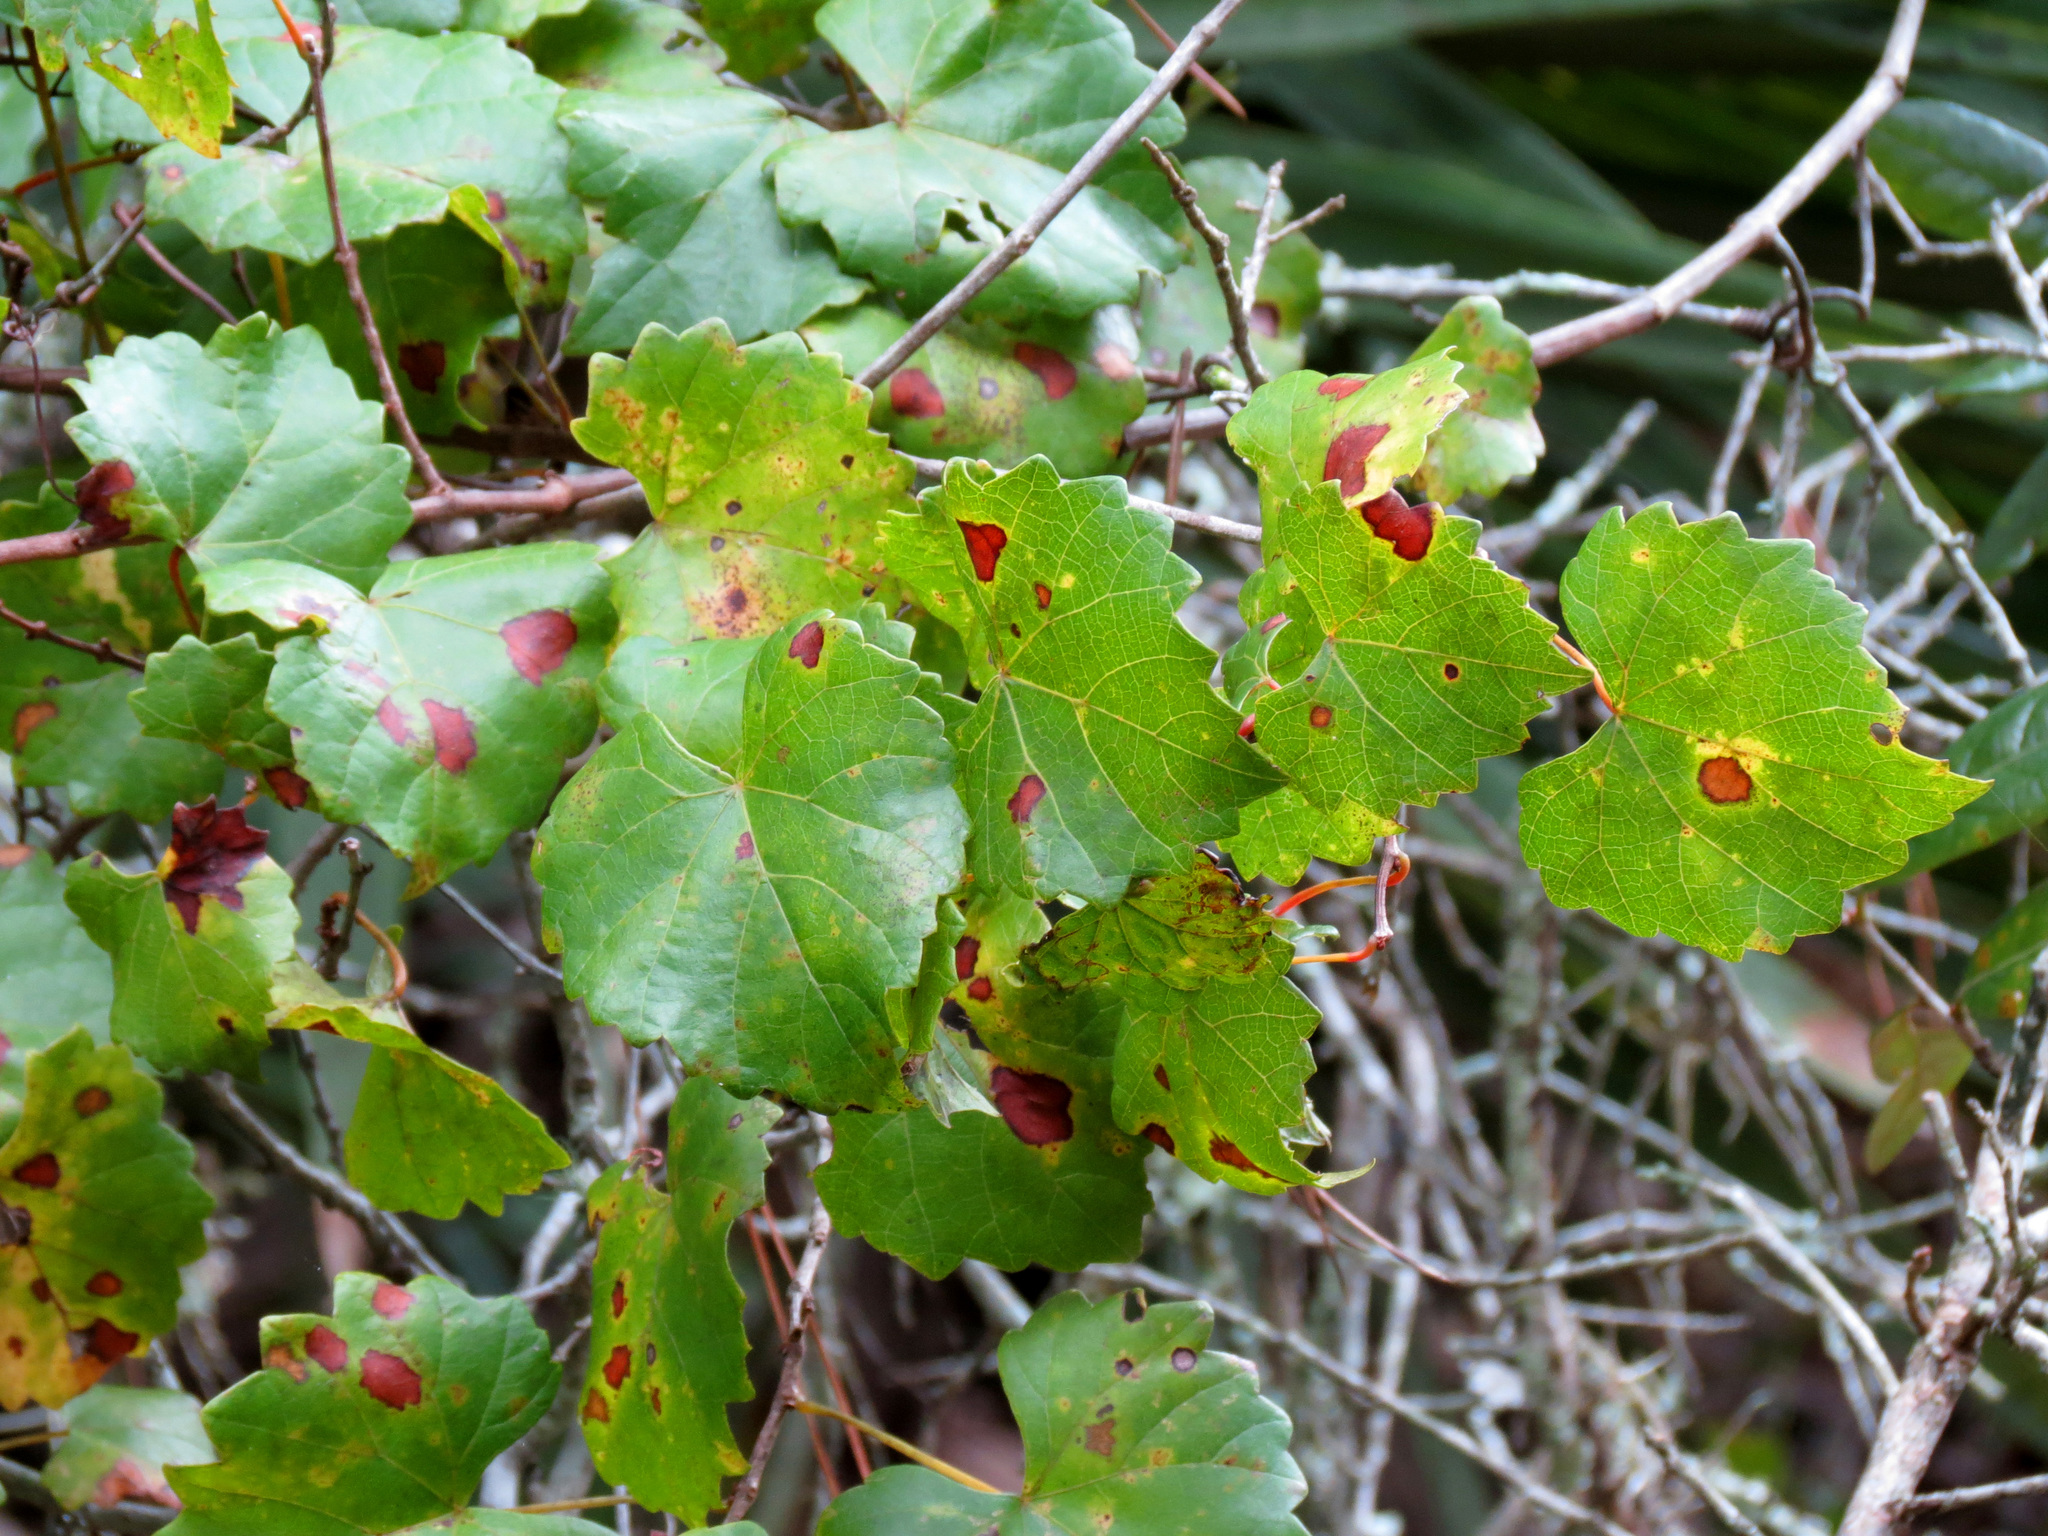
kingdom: Plantae
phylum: Tracheophyta
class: Magnoliopsida
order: Vitales
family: Vitaceae
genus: Vitis
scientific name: Vitis rotundifolia
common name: Muscadine grape
